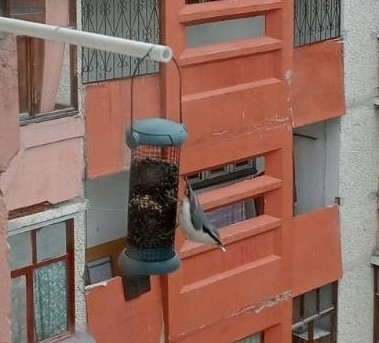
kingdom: Animalia
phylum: Chordata
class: Aves
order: Passeriformes
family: Sittidae
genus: Sitta
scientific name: Sitta europaea
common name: Eurasian nuthatch
